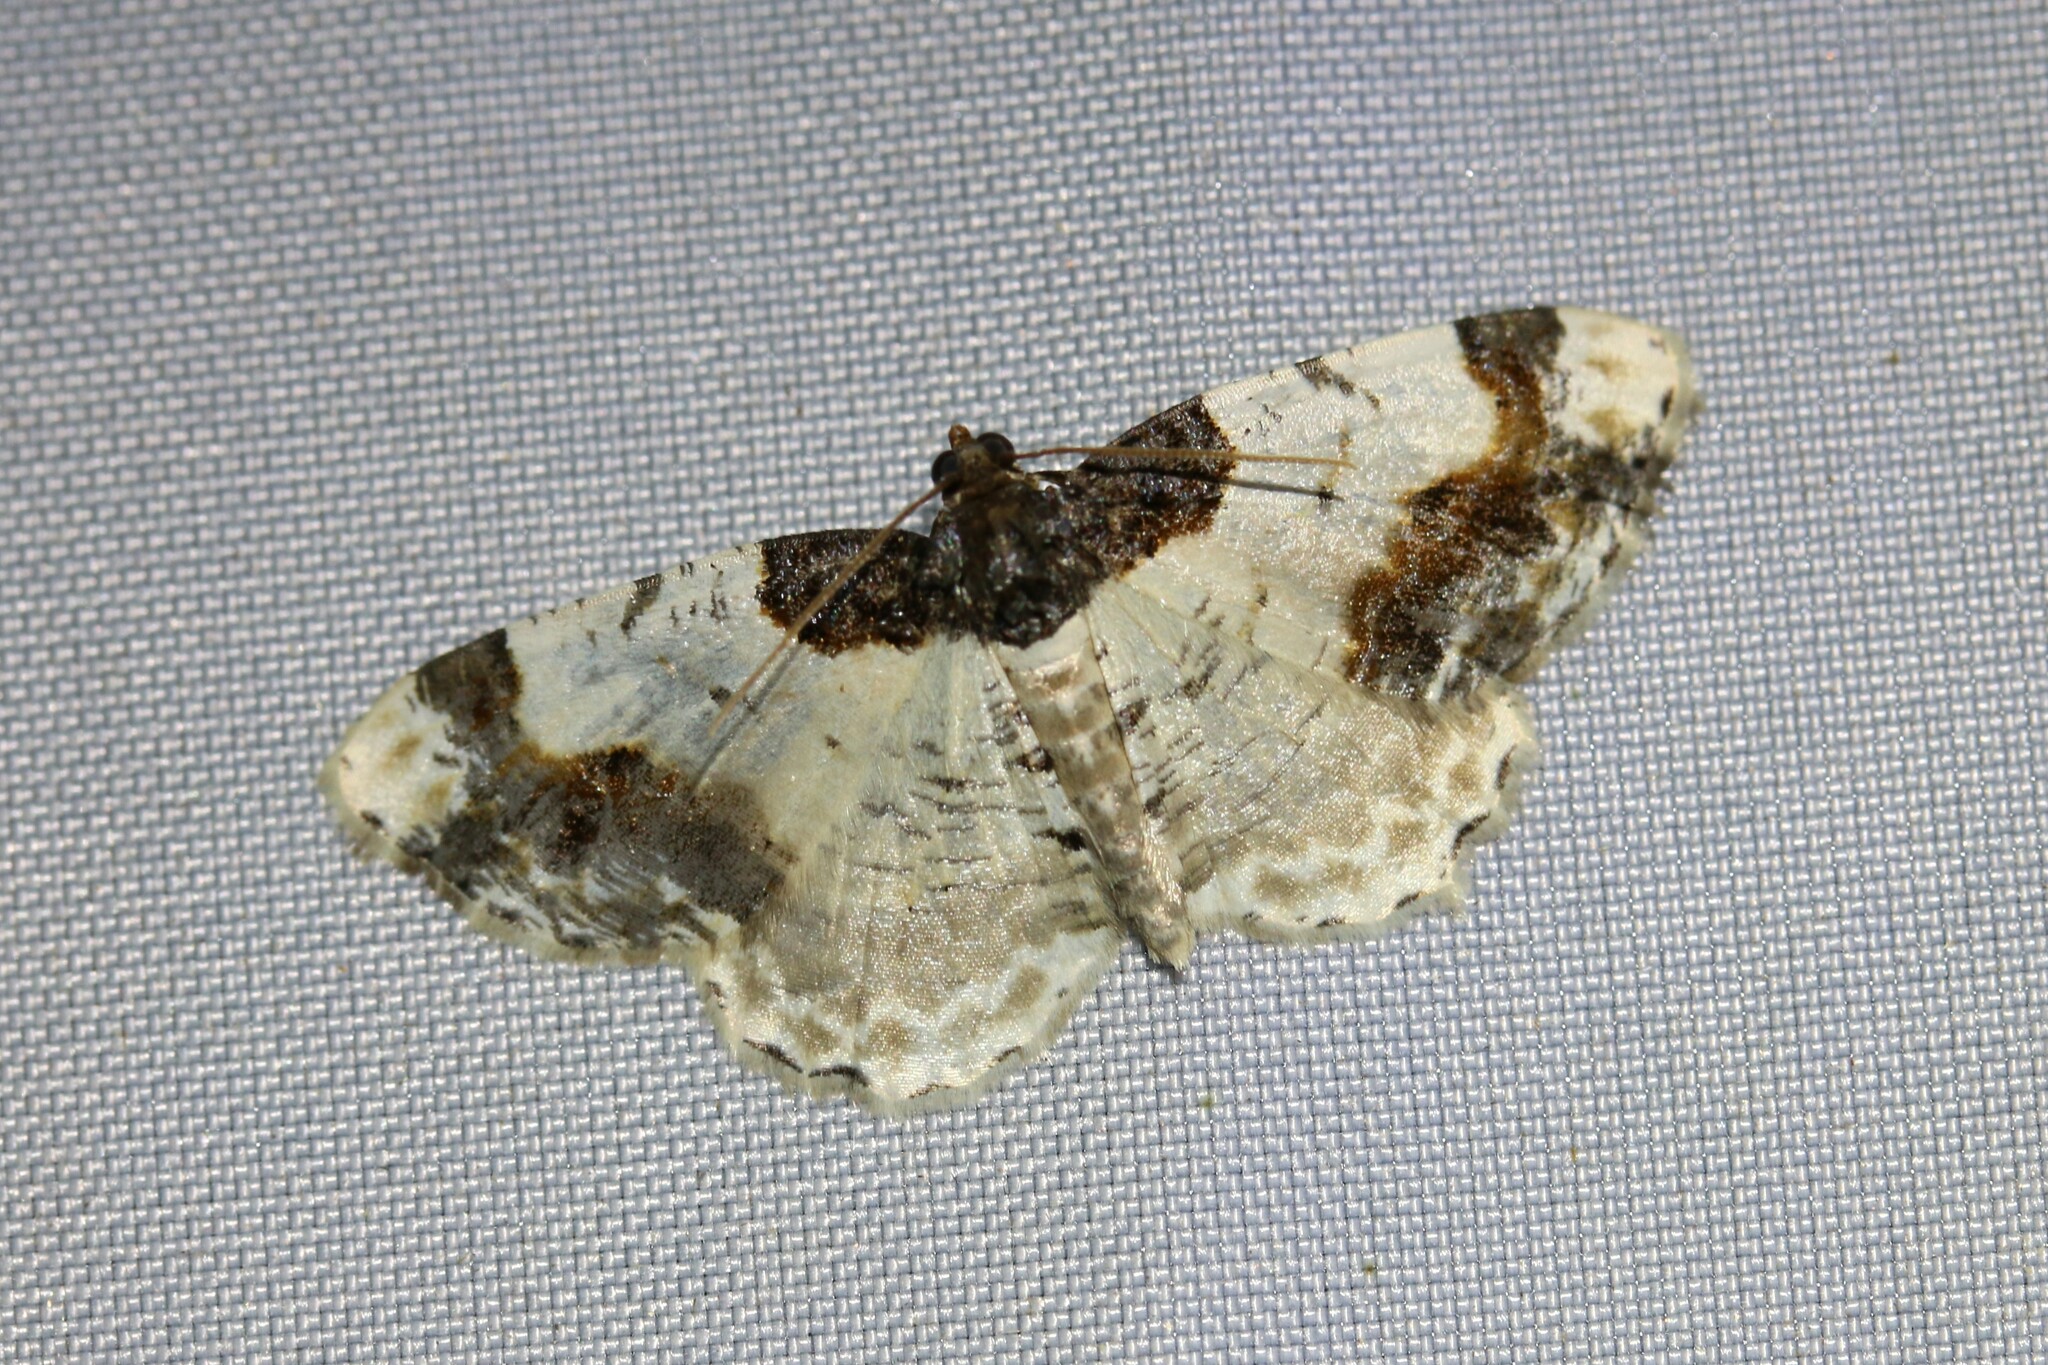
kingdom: Animalia
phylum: Arthropoda
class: Insecta
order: Lepidoptera
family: Geometridae
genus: Ligdia
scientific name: Ligdia adustata
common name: Scorched carpet
